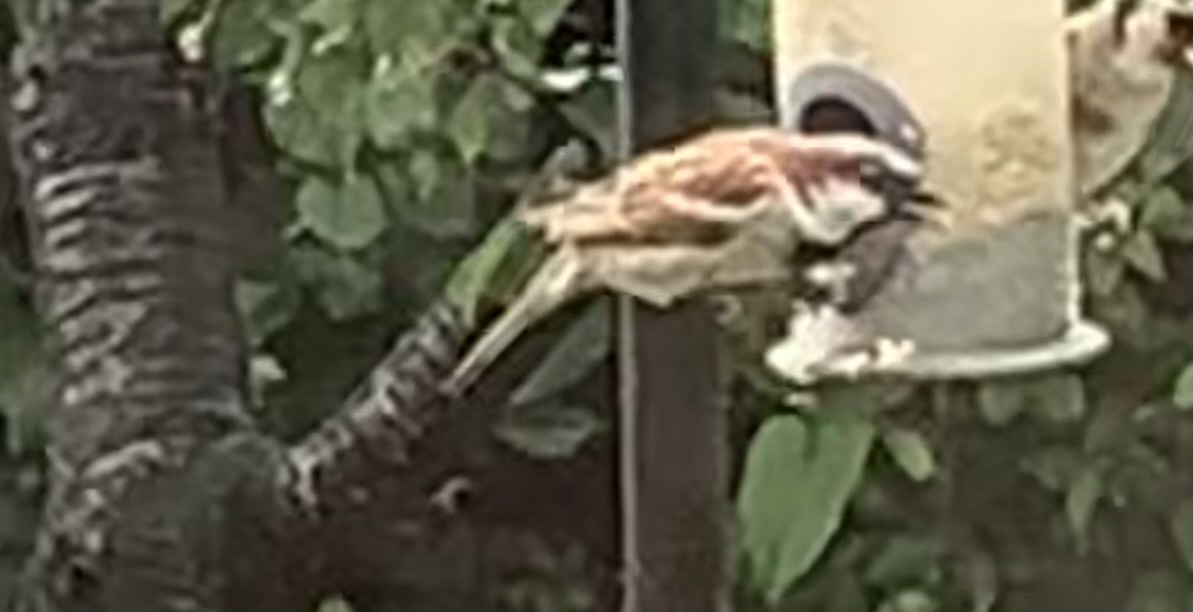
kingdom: Animalia
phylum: Chordata
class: Aves
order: Passeriformes
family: Passeridae
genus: Passer
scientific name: Passer domesticus
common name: House sparrow
